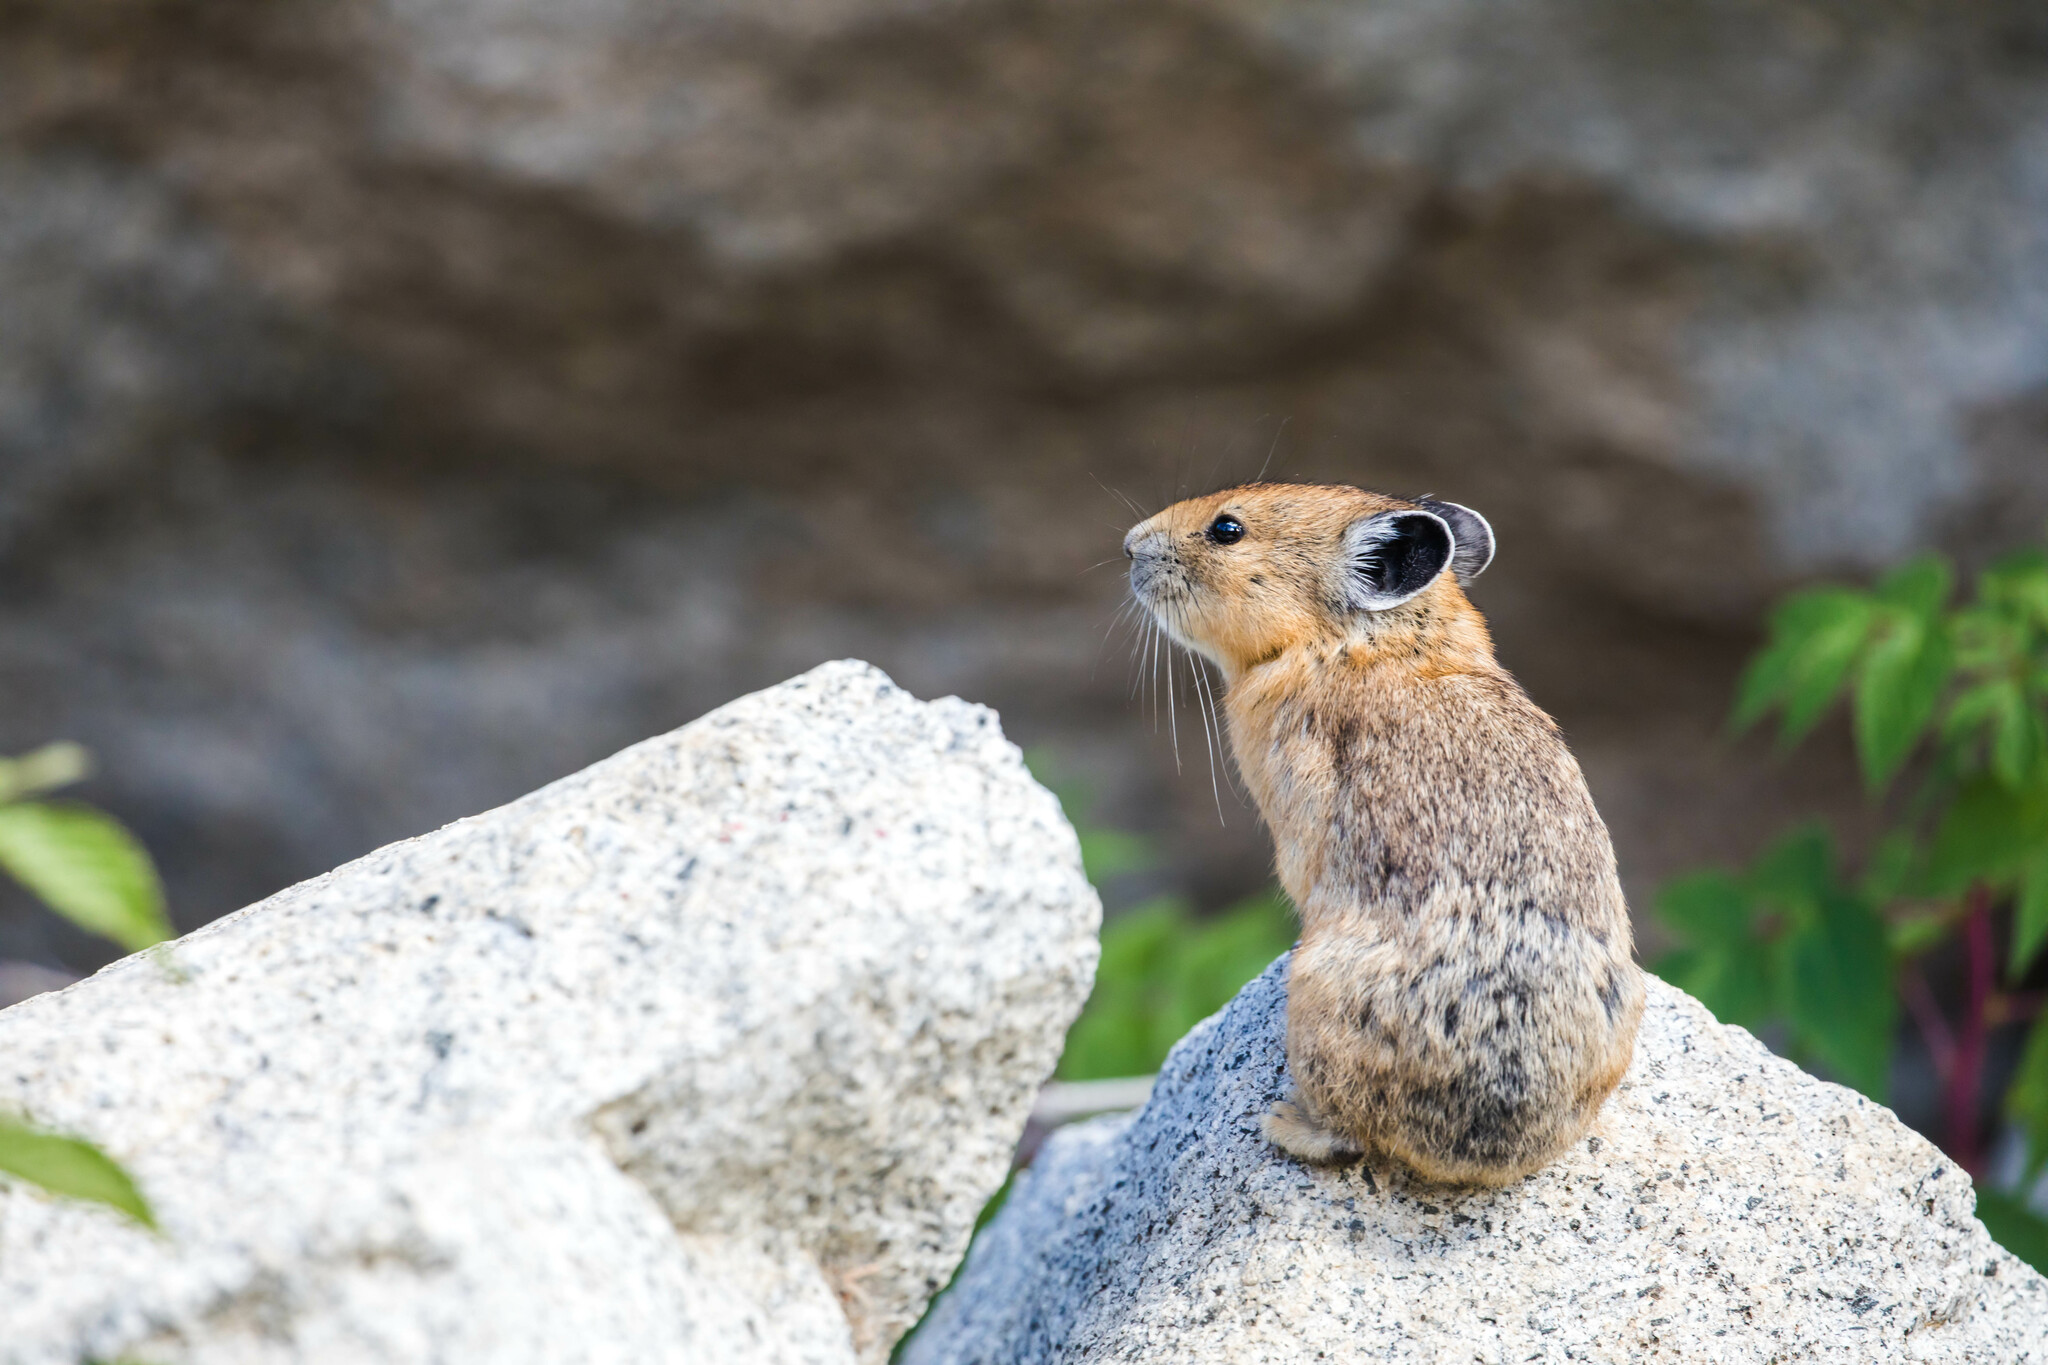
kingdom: Animalia
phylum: Chordata
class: Mammalia
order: Lagomorpha
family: Ochotonidae
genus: Ochotona
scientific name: Ochotona princeps
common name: American pika
